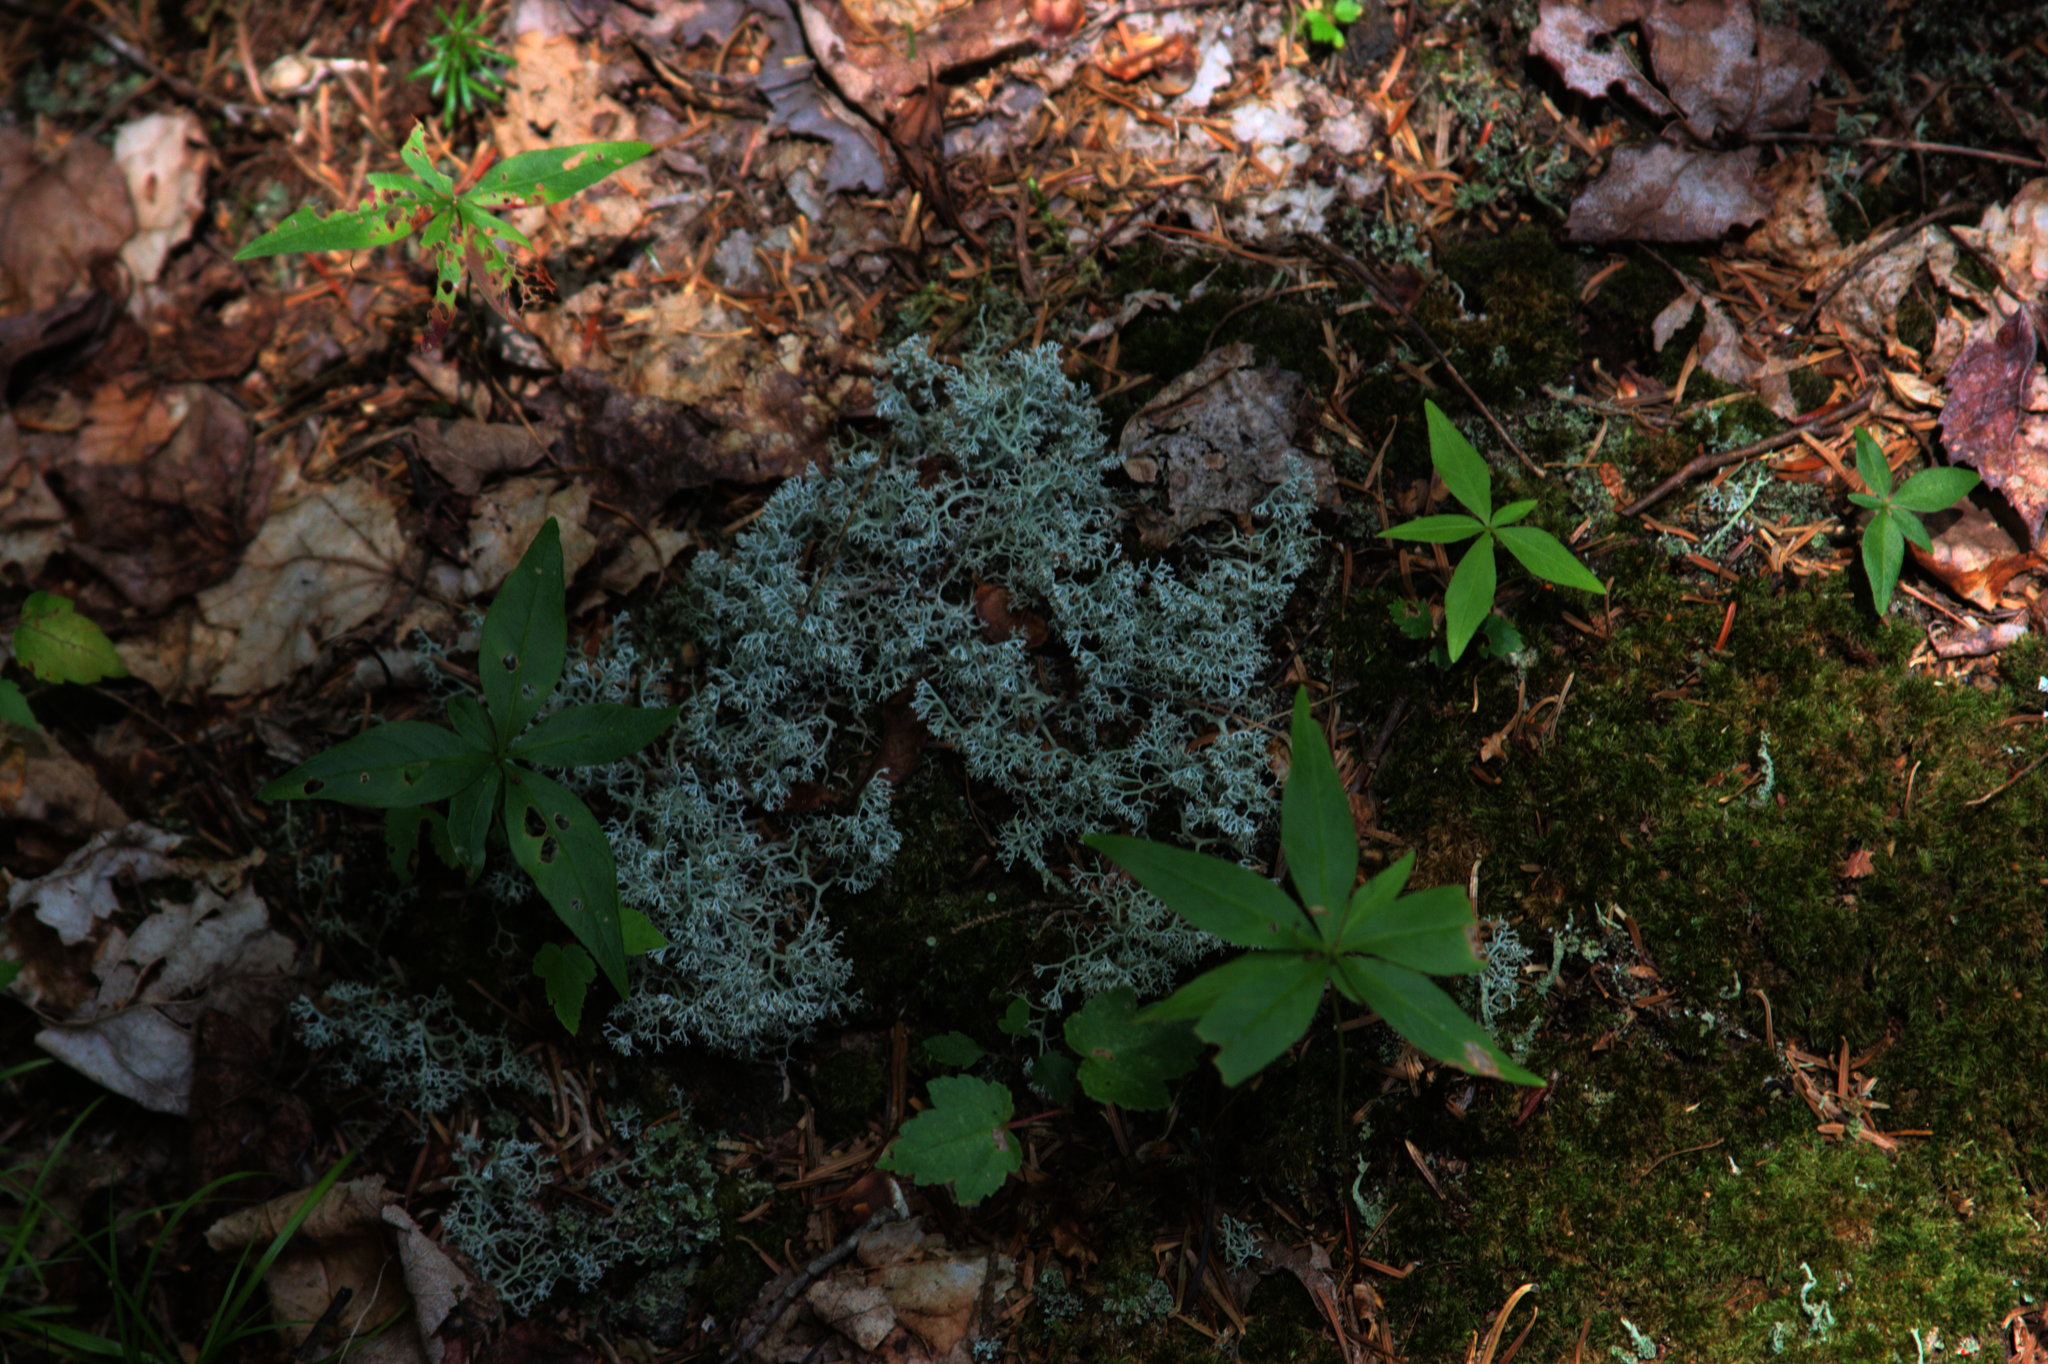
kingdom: Plantae
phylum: Tracheophyta
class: Magnoliopsida
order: Ericales
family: Primulaceae
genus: Lysimachia
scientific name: Lysimachia borealis
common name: American starflower
